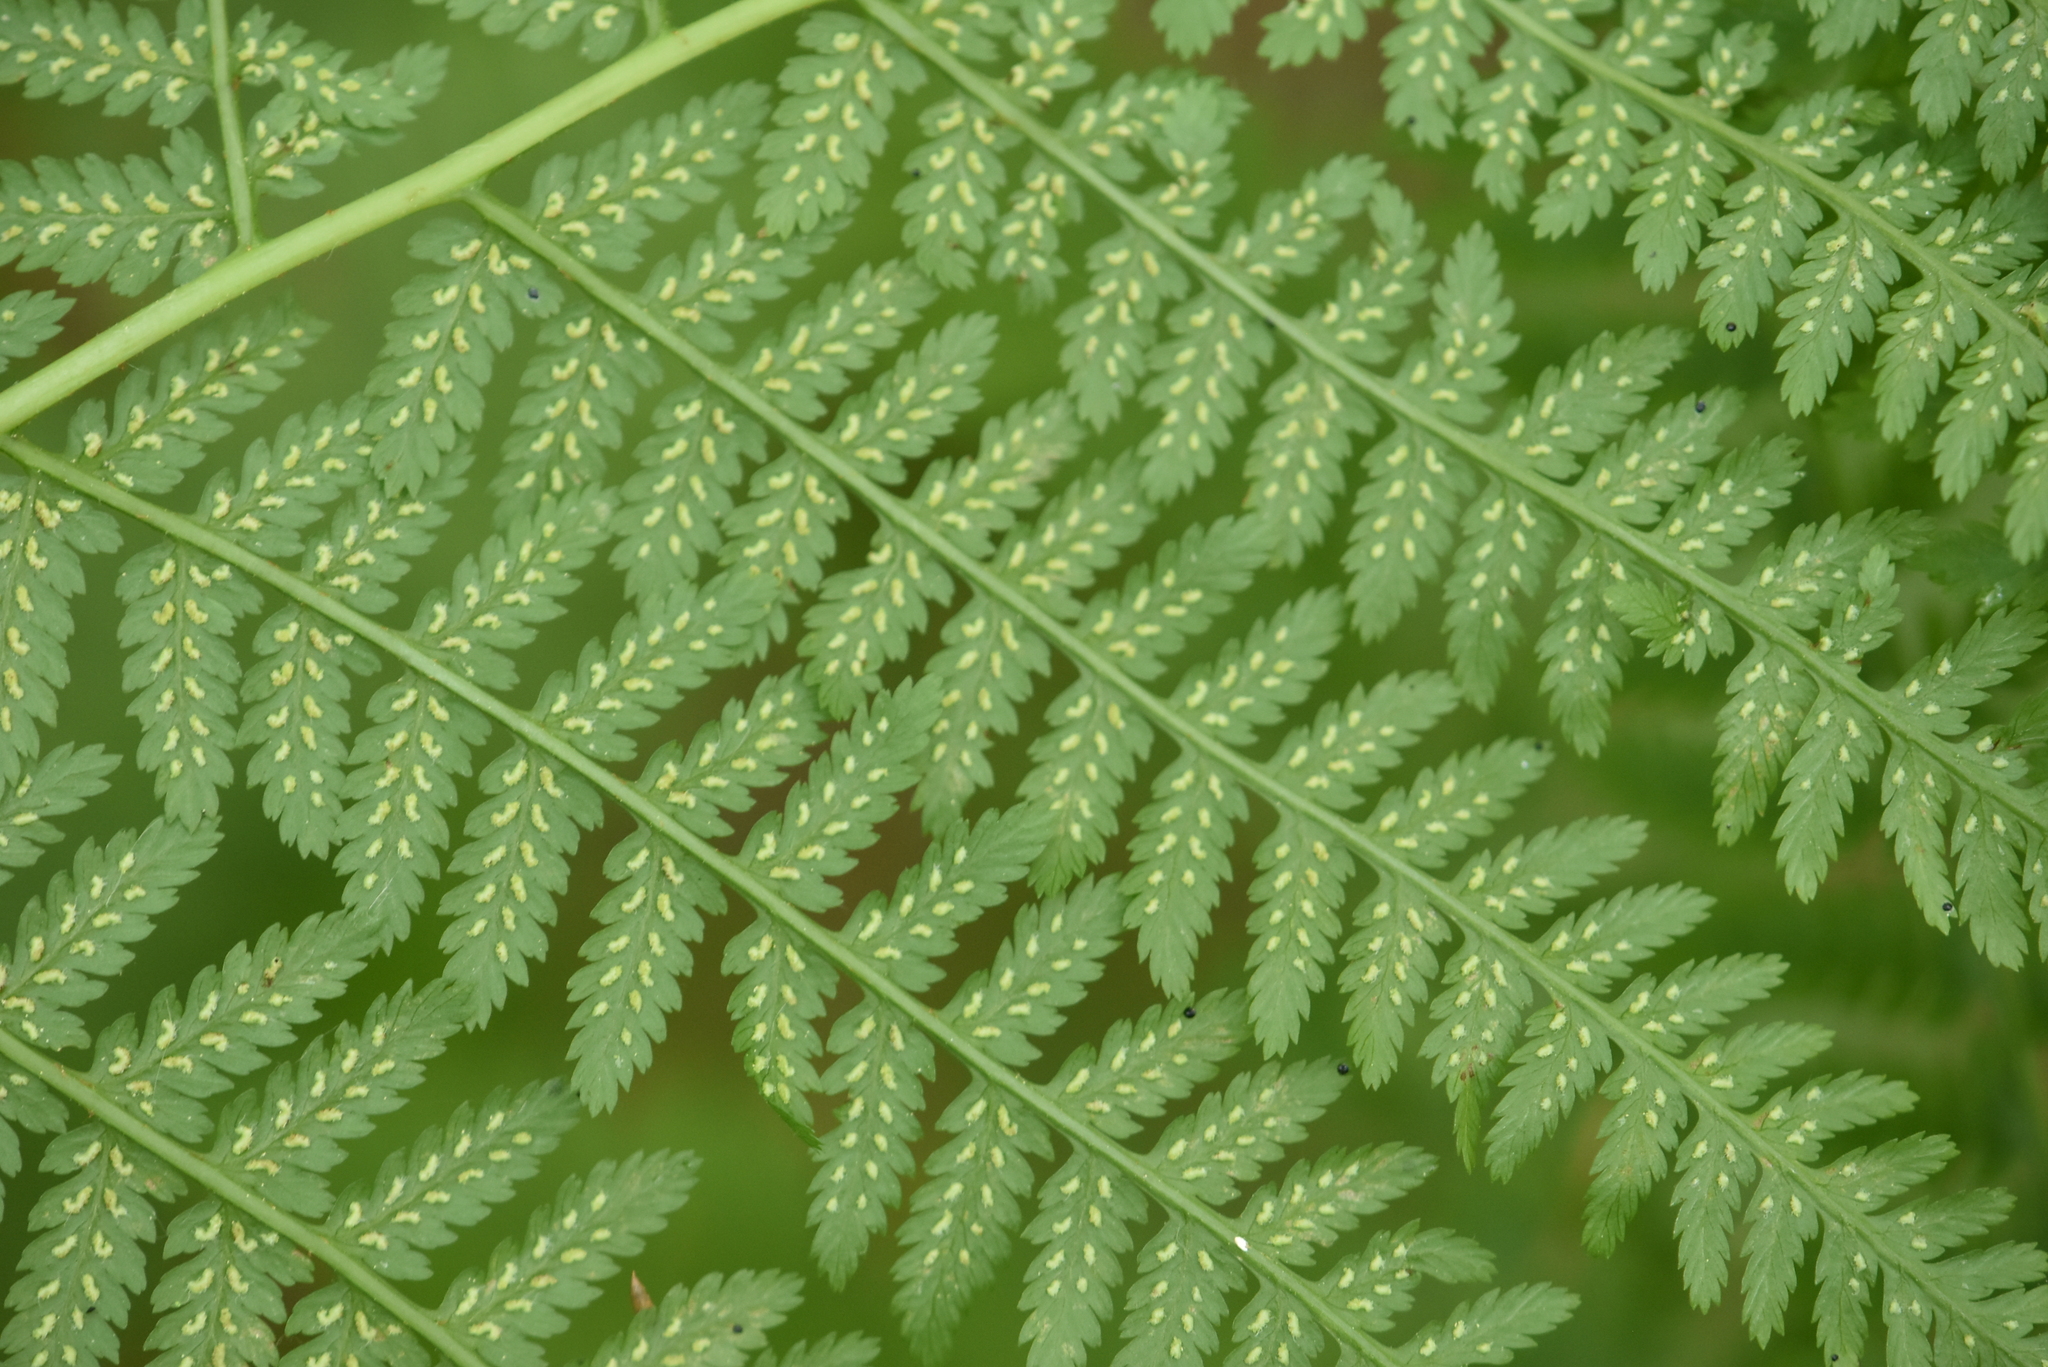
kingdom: Plantae
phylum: Tracheophyta
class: Polypodiopsida
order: Polypodiales
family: Athyriaceae
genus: Athyrium
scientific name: Athyrium filix-femina
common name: Lady fern
